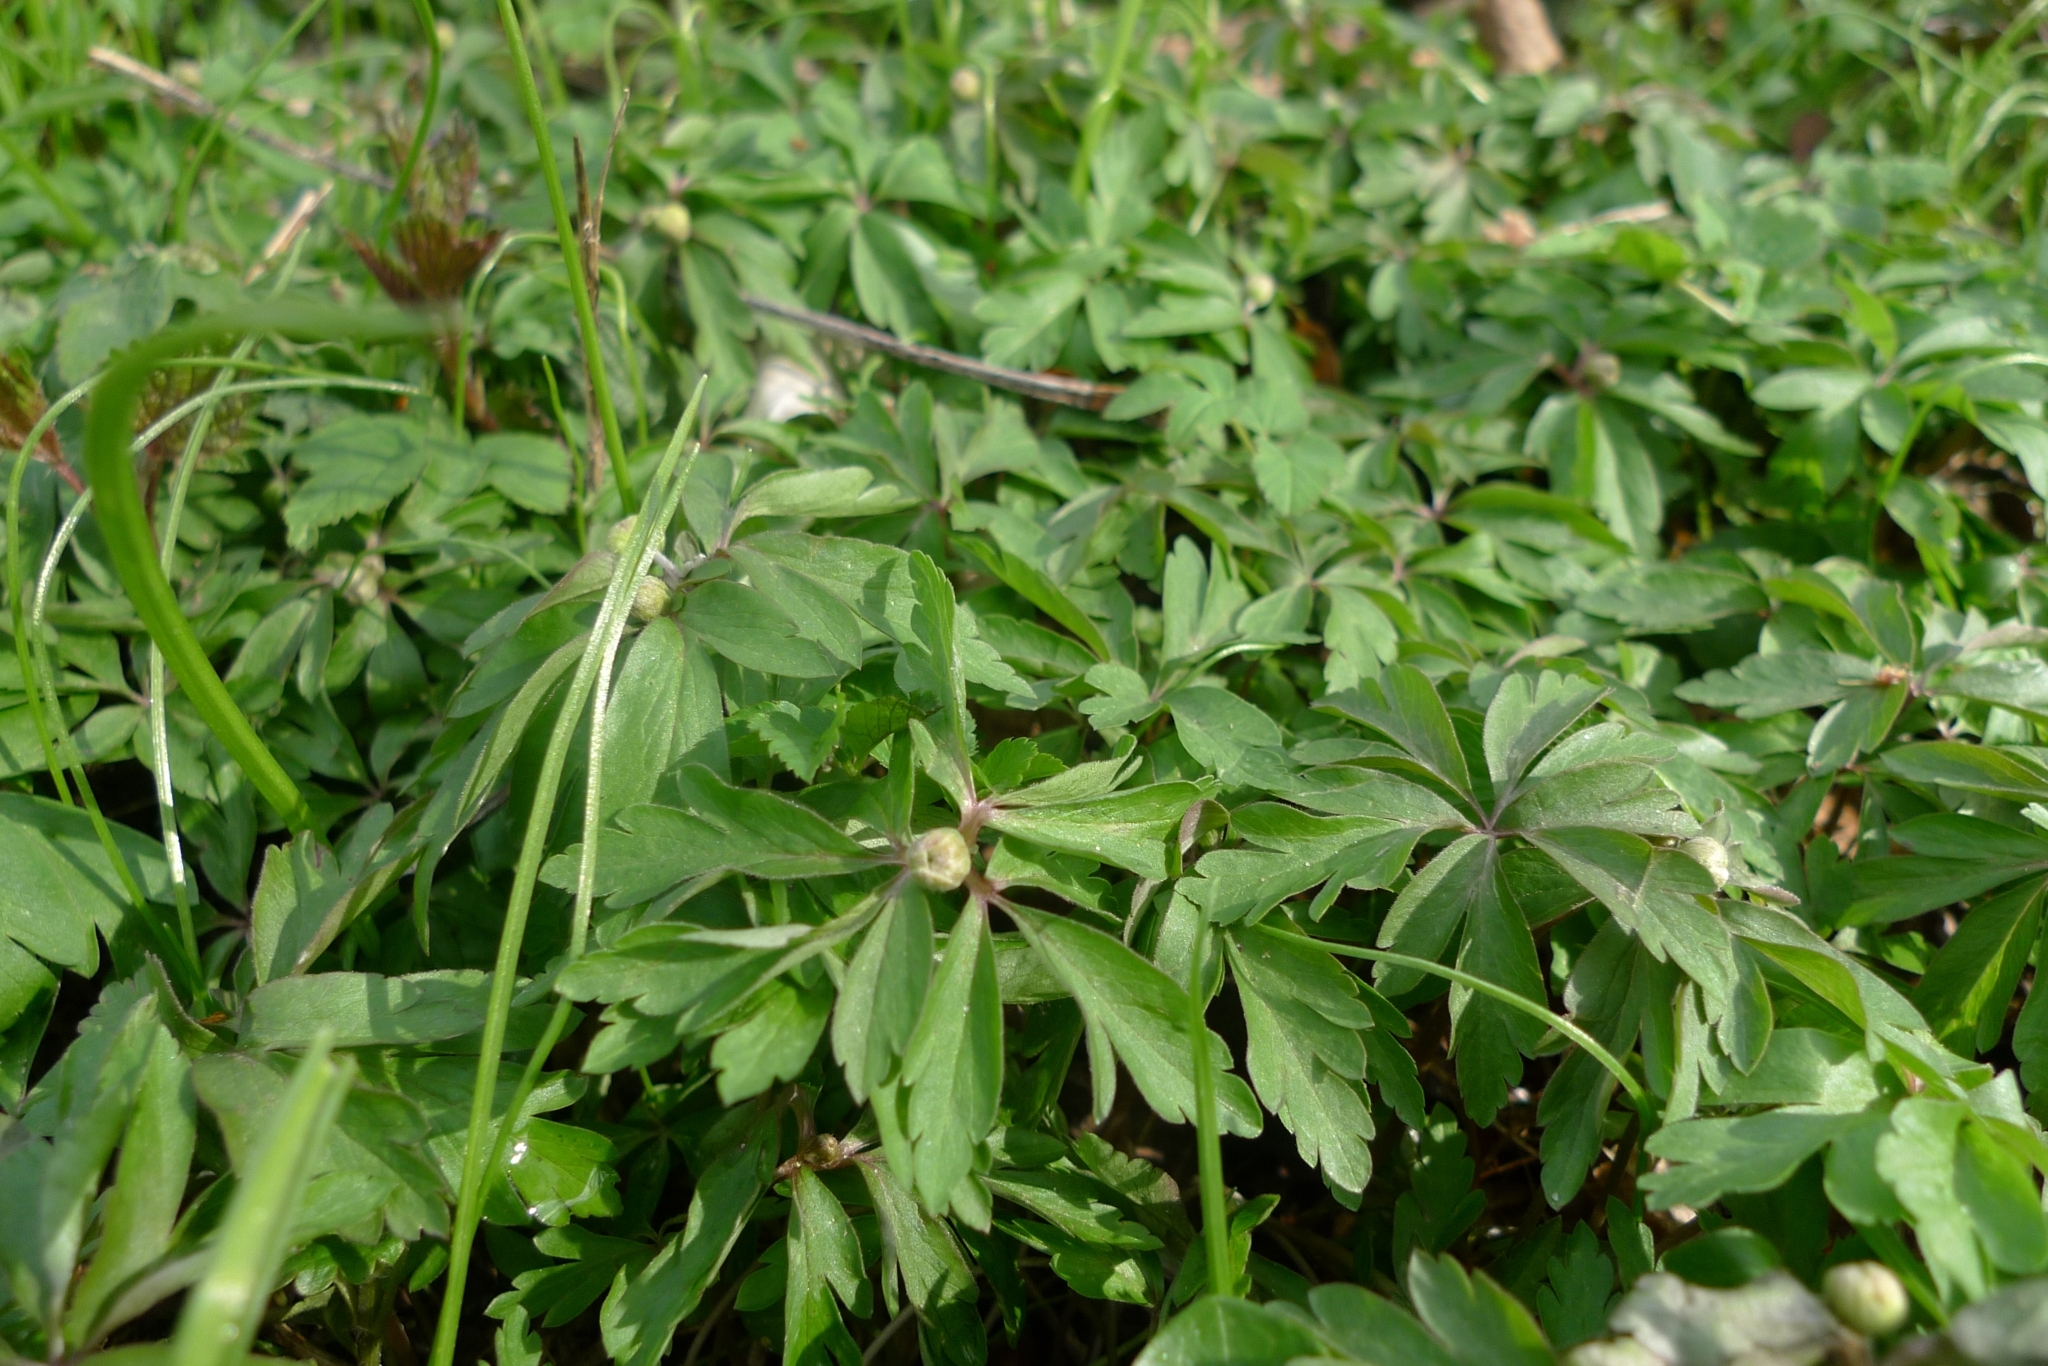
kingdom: Plantae
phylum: Tracheophyta
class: Magnoliopsida
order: Ranunculales
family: Ranunculaceae
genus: Anemone
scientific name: Anemone ranunculoides
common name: Yellow anemone
